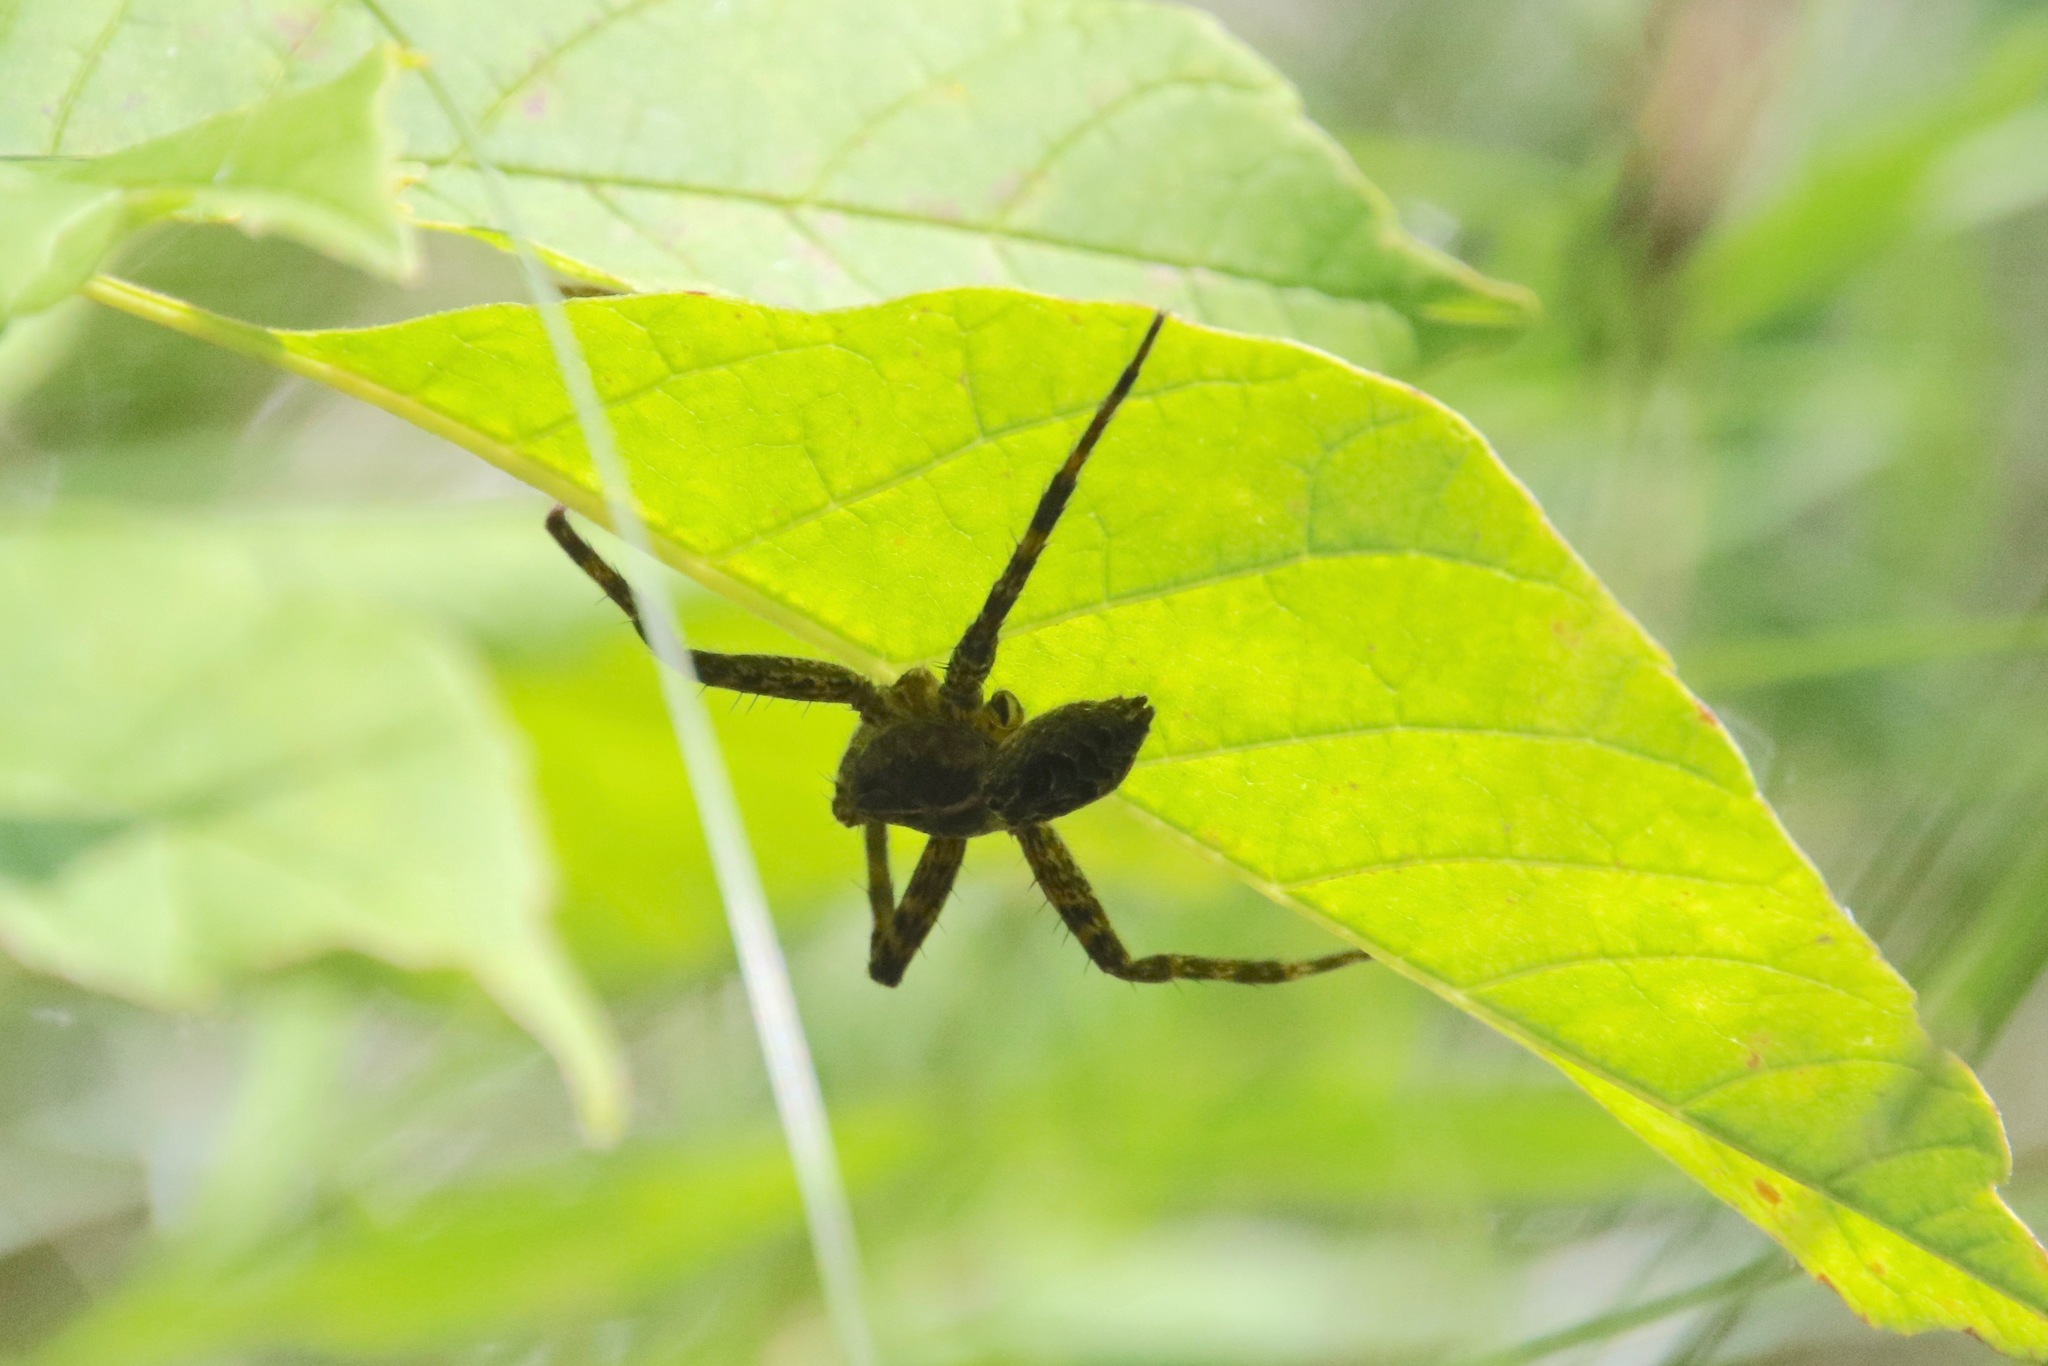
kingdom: Animalia
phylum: Arthropoda
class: Arachnida
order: Araneae
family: Pisauridae
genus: Dolomedes
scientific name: Dolomedes scriptus
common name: Striped fishing spider
